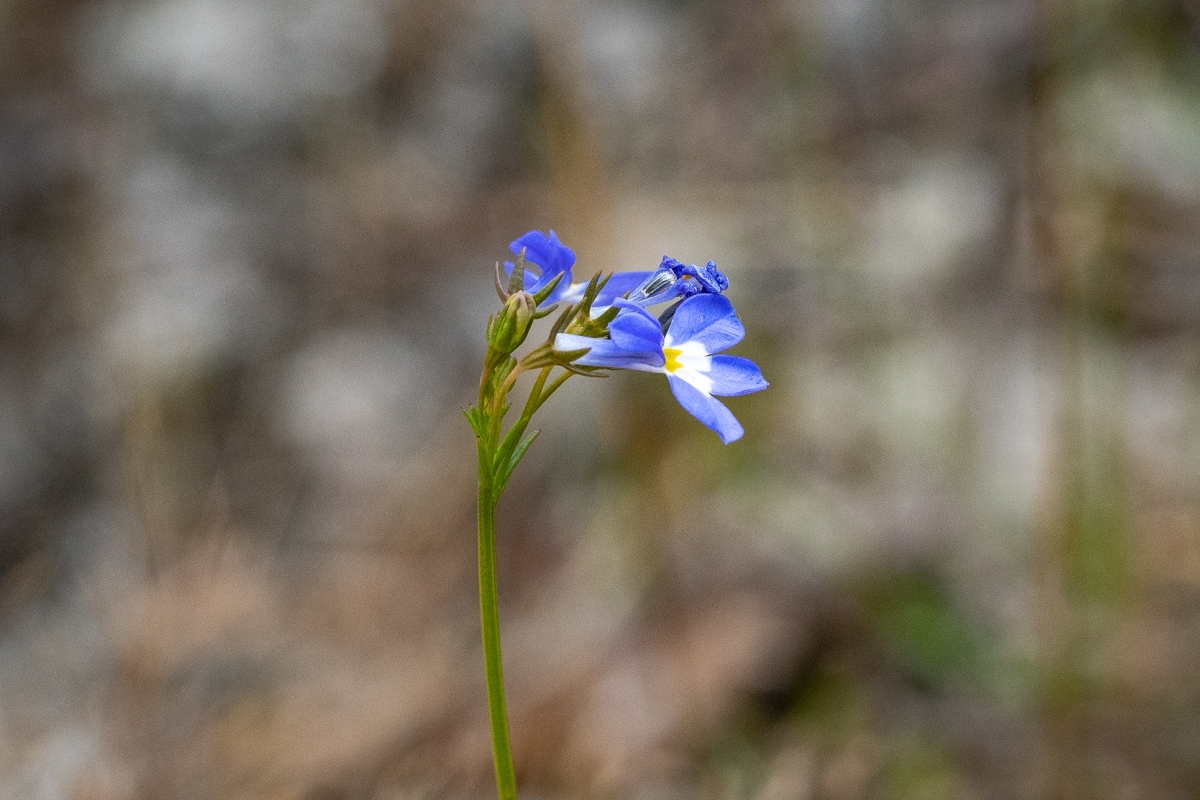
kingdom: Plantae
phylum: Tracheophyta
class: Magnoliopsida
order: Asterales
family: Campanulaceae
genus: Lobelia
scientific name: Lobelia comosa
